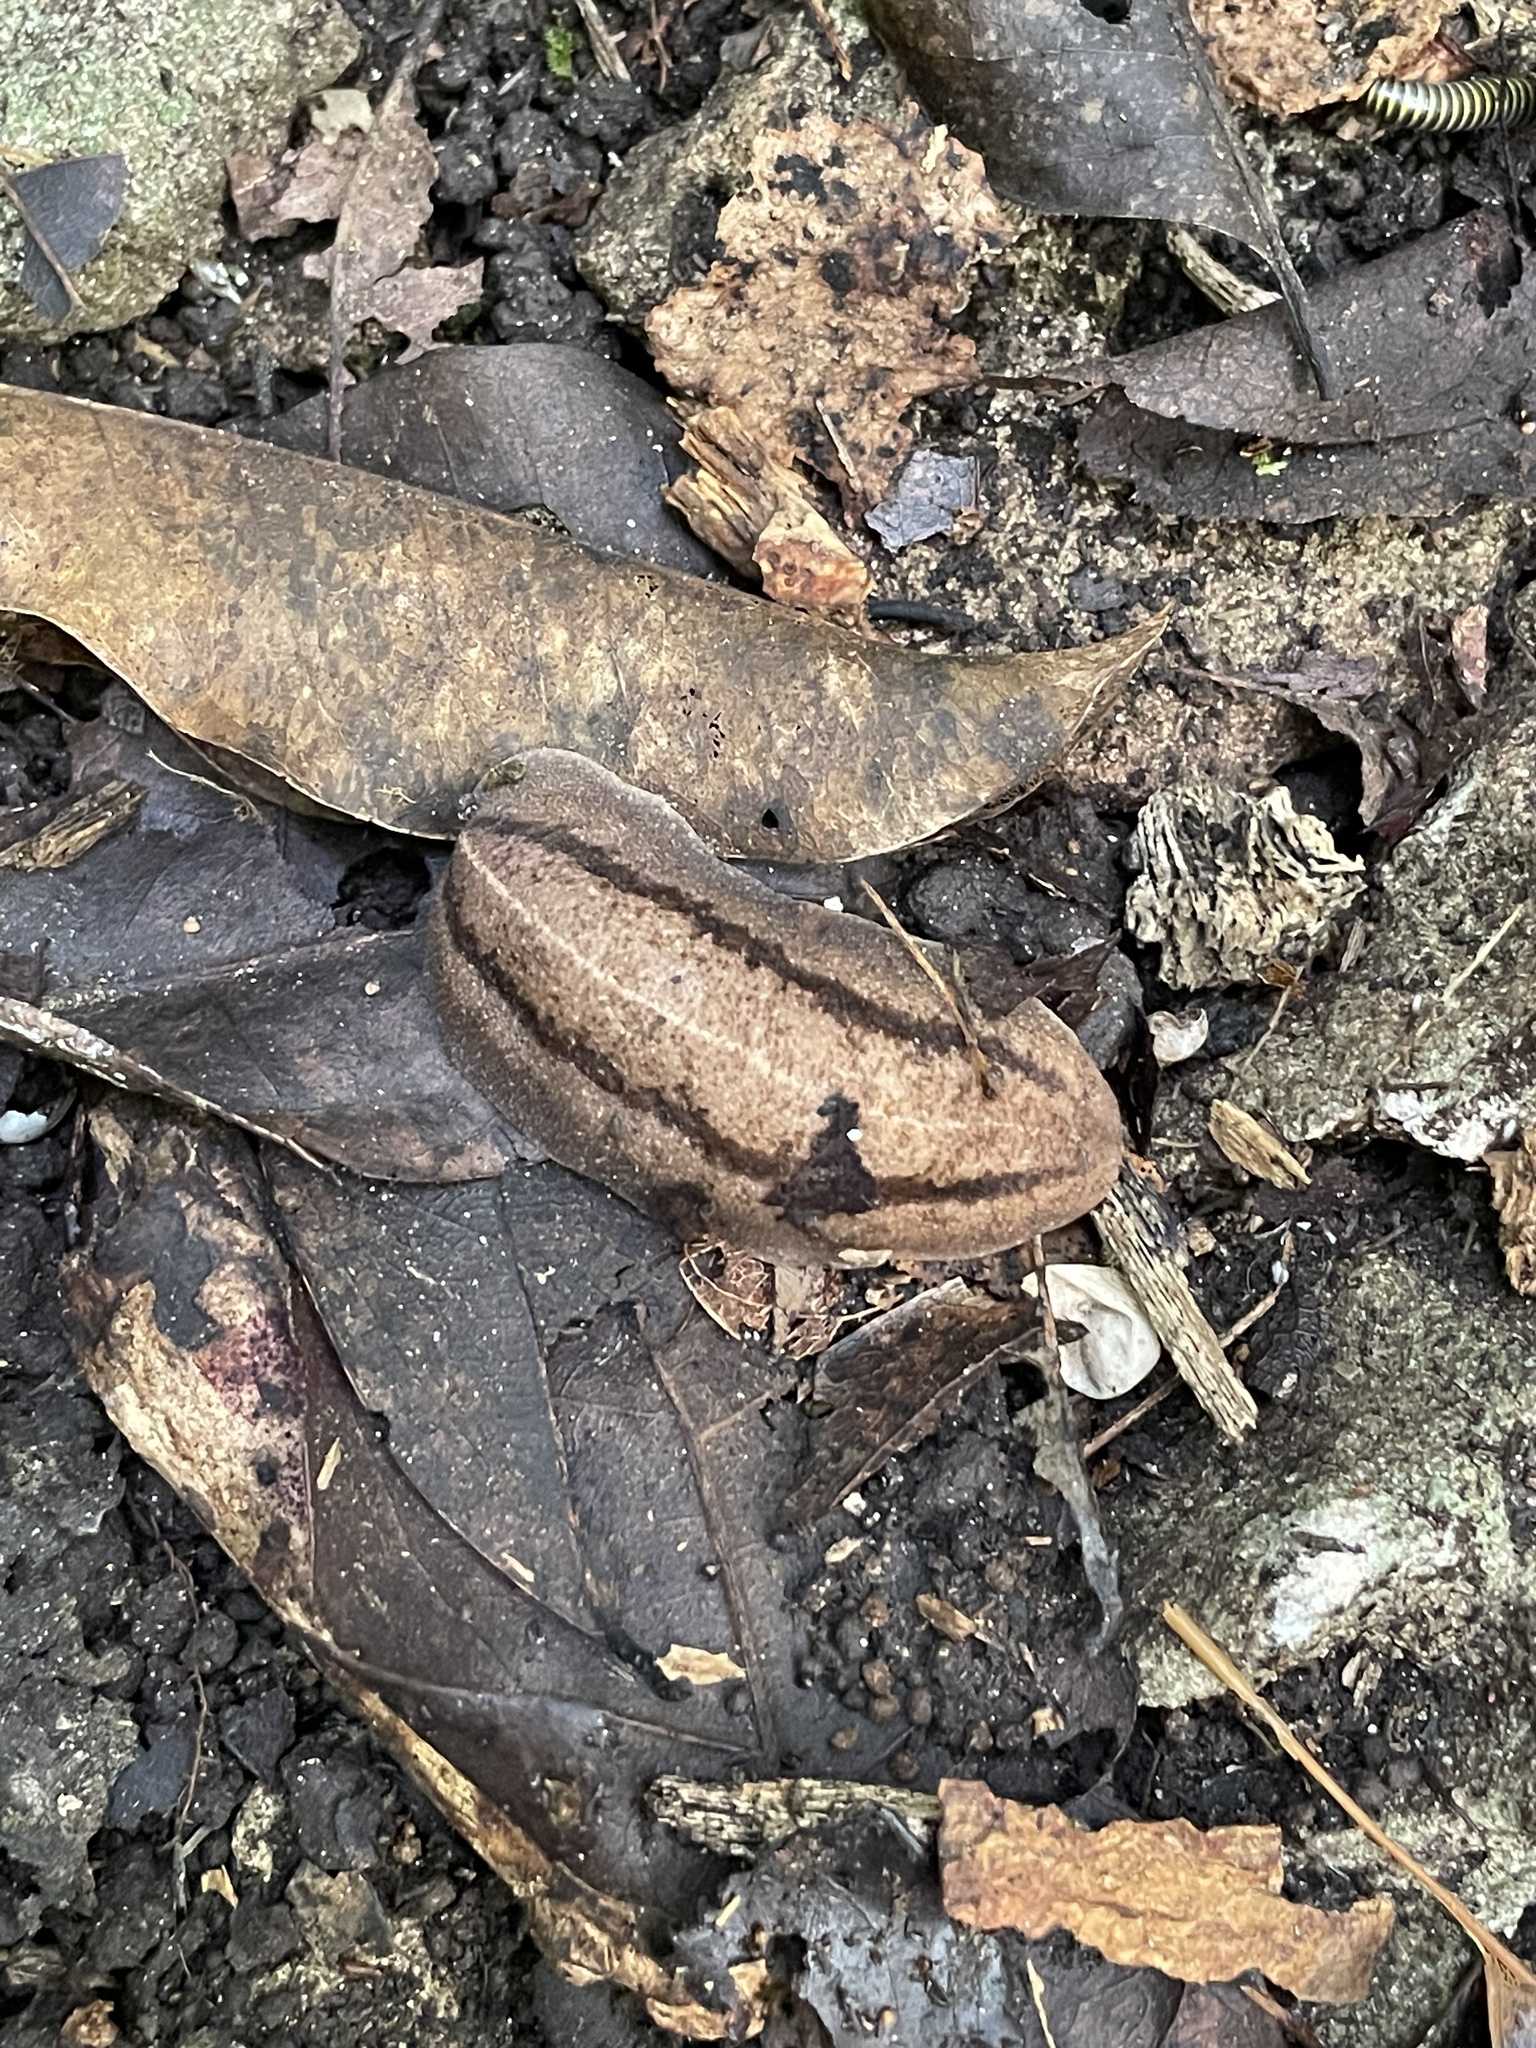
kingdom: Animalia
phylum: Mollusca
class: Gastropoda
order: Systellommatophora
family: Veronicellidae
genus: Leidyula
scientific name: Leidyula floridana
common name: Florida leatherleaf
